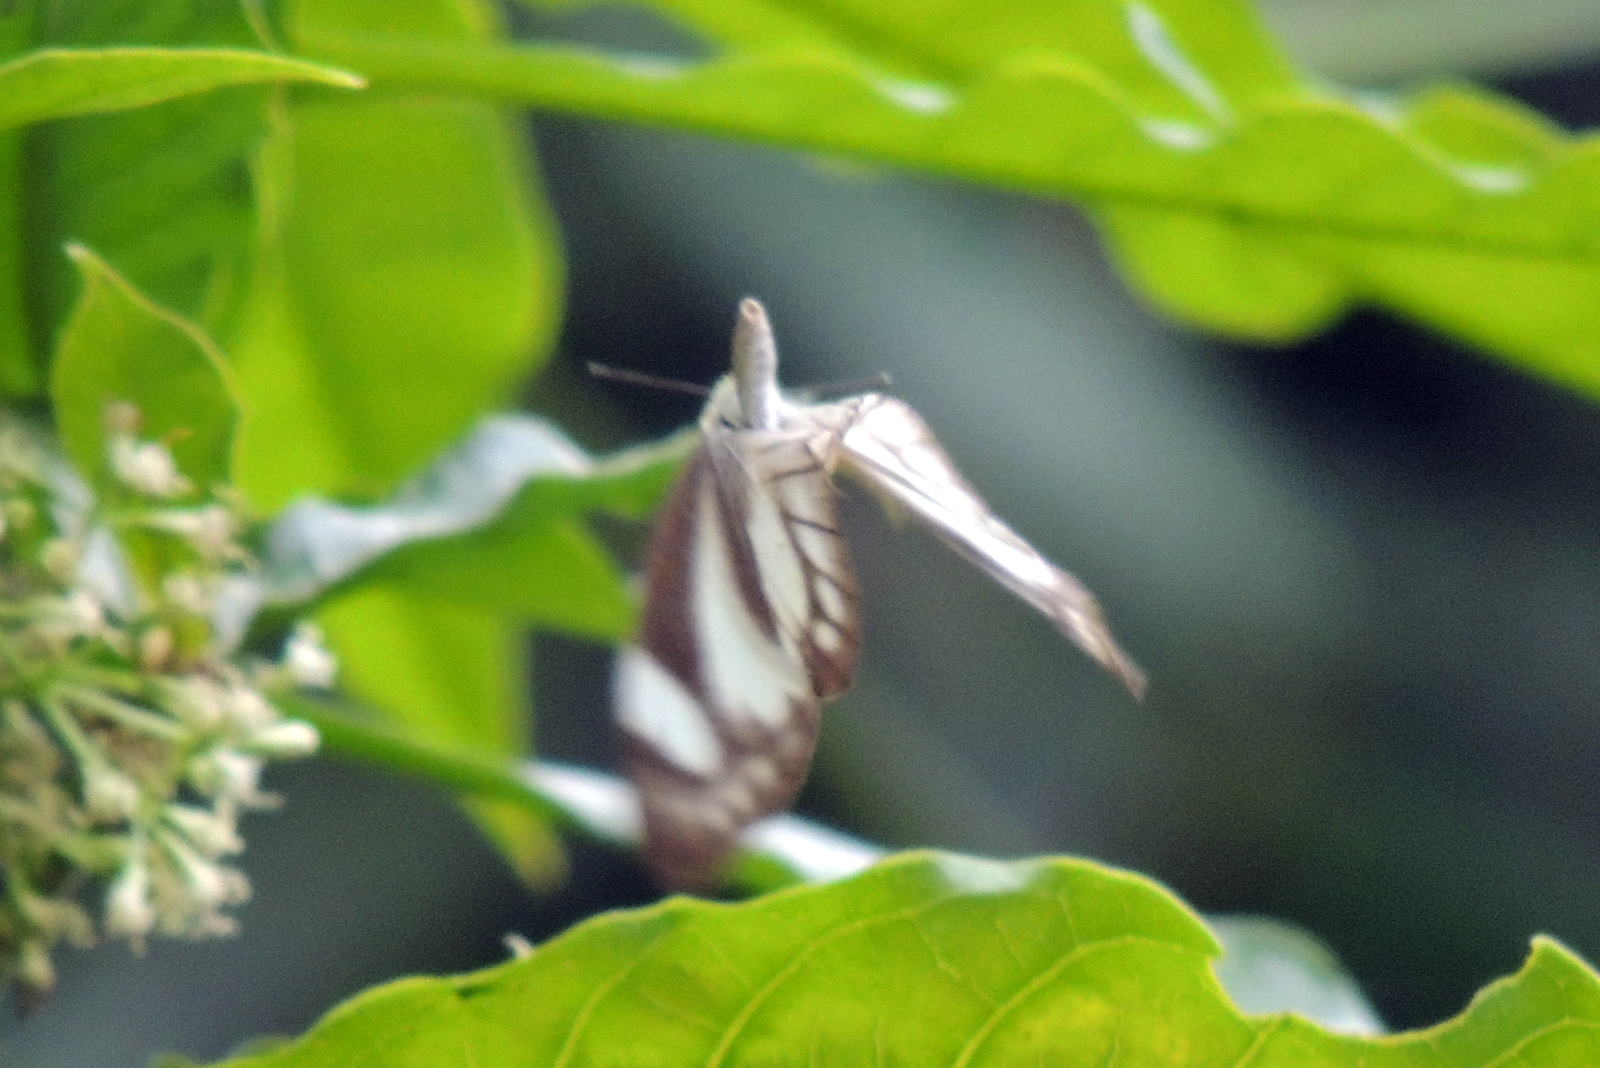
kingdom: Animalia
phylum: Arthropoda
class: Insecta
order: Lepidoptera
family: Pieridae
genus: Appias
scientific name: Appias libythea
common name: Striped albatross
